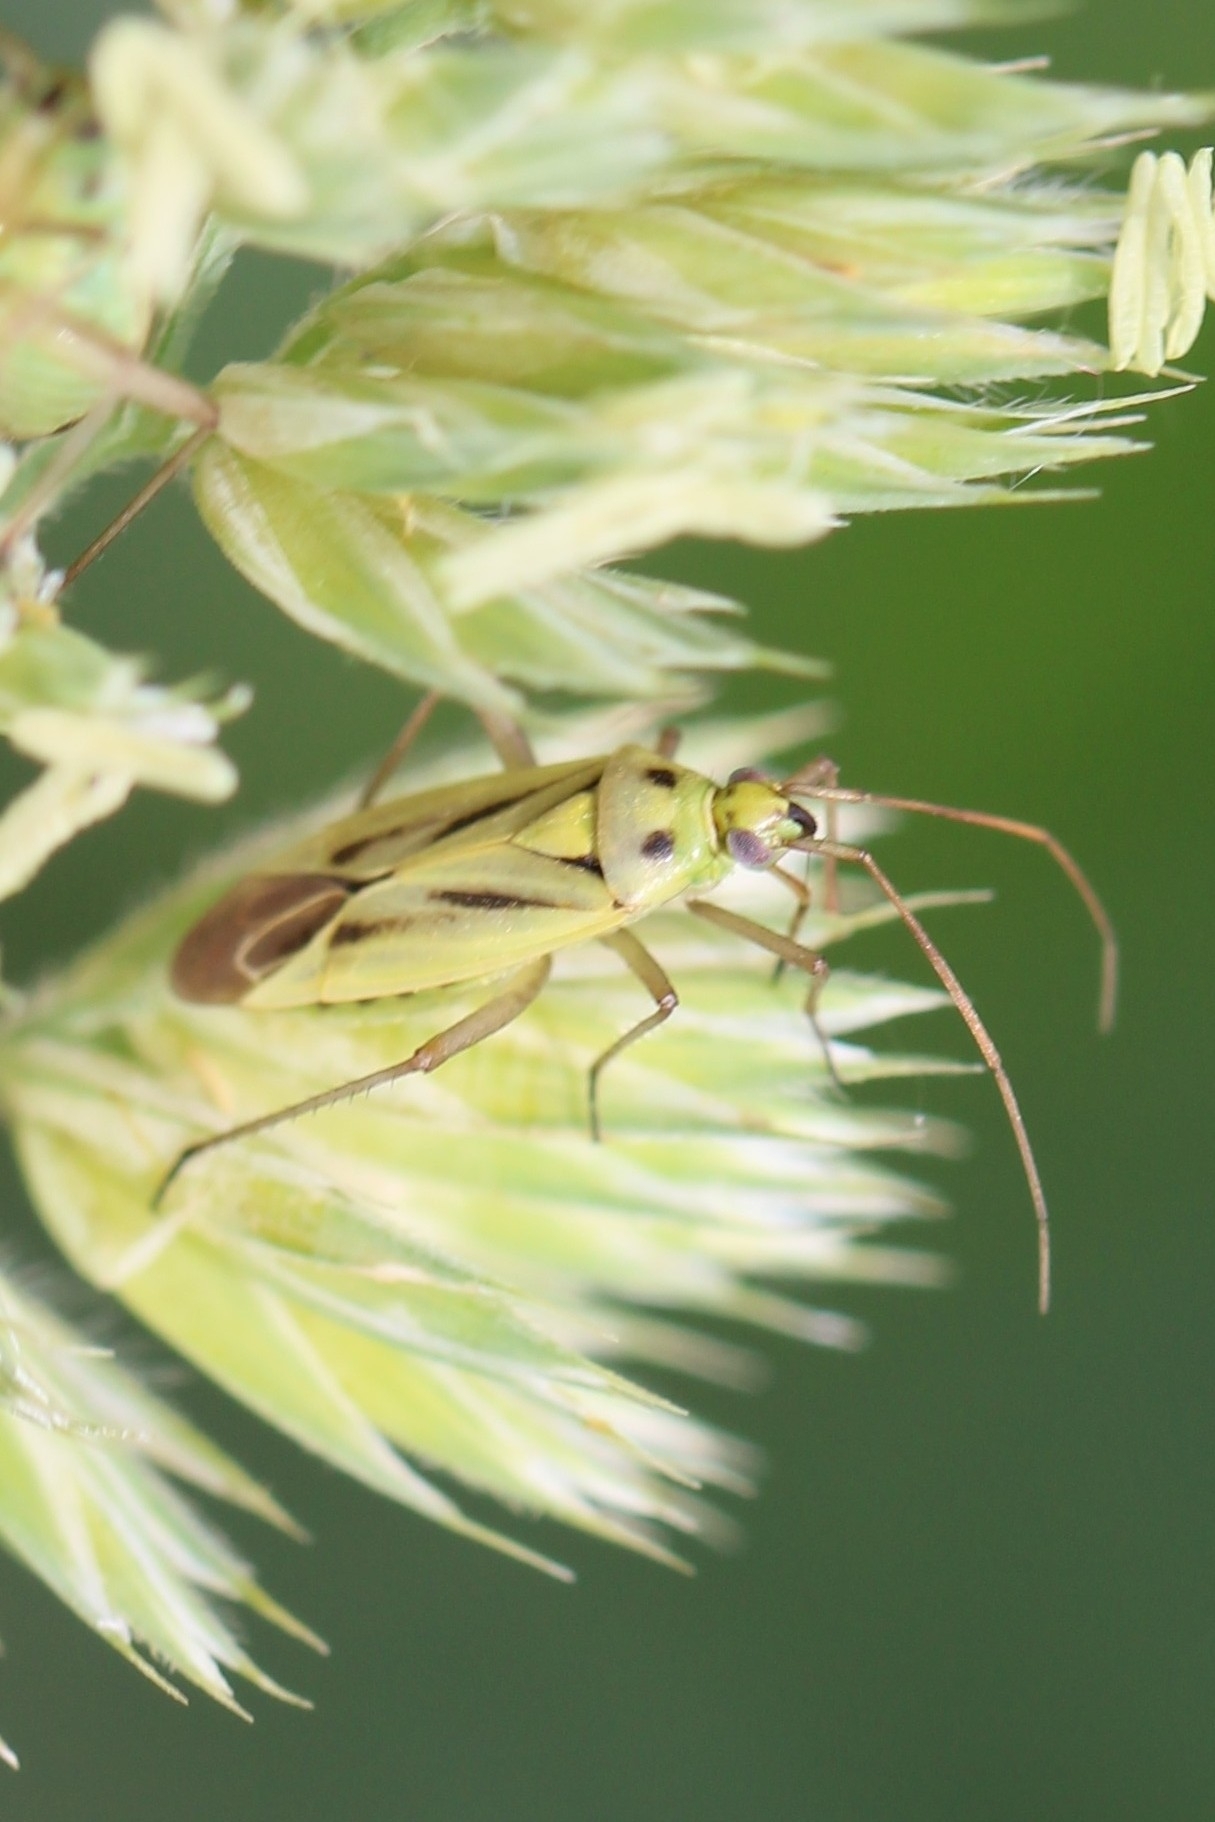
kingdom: Animalia
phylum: Arthropoda
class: Insecta
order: Hemiptera
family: Miridae
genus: Stenotus
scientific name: Stenotus binotatus
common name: Plant bug
